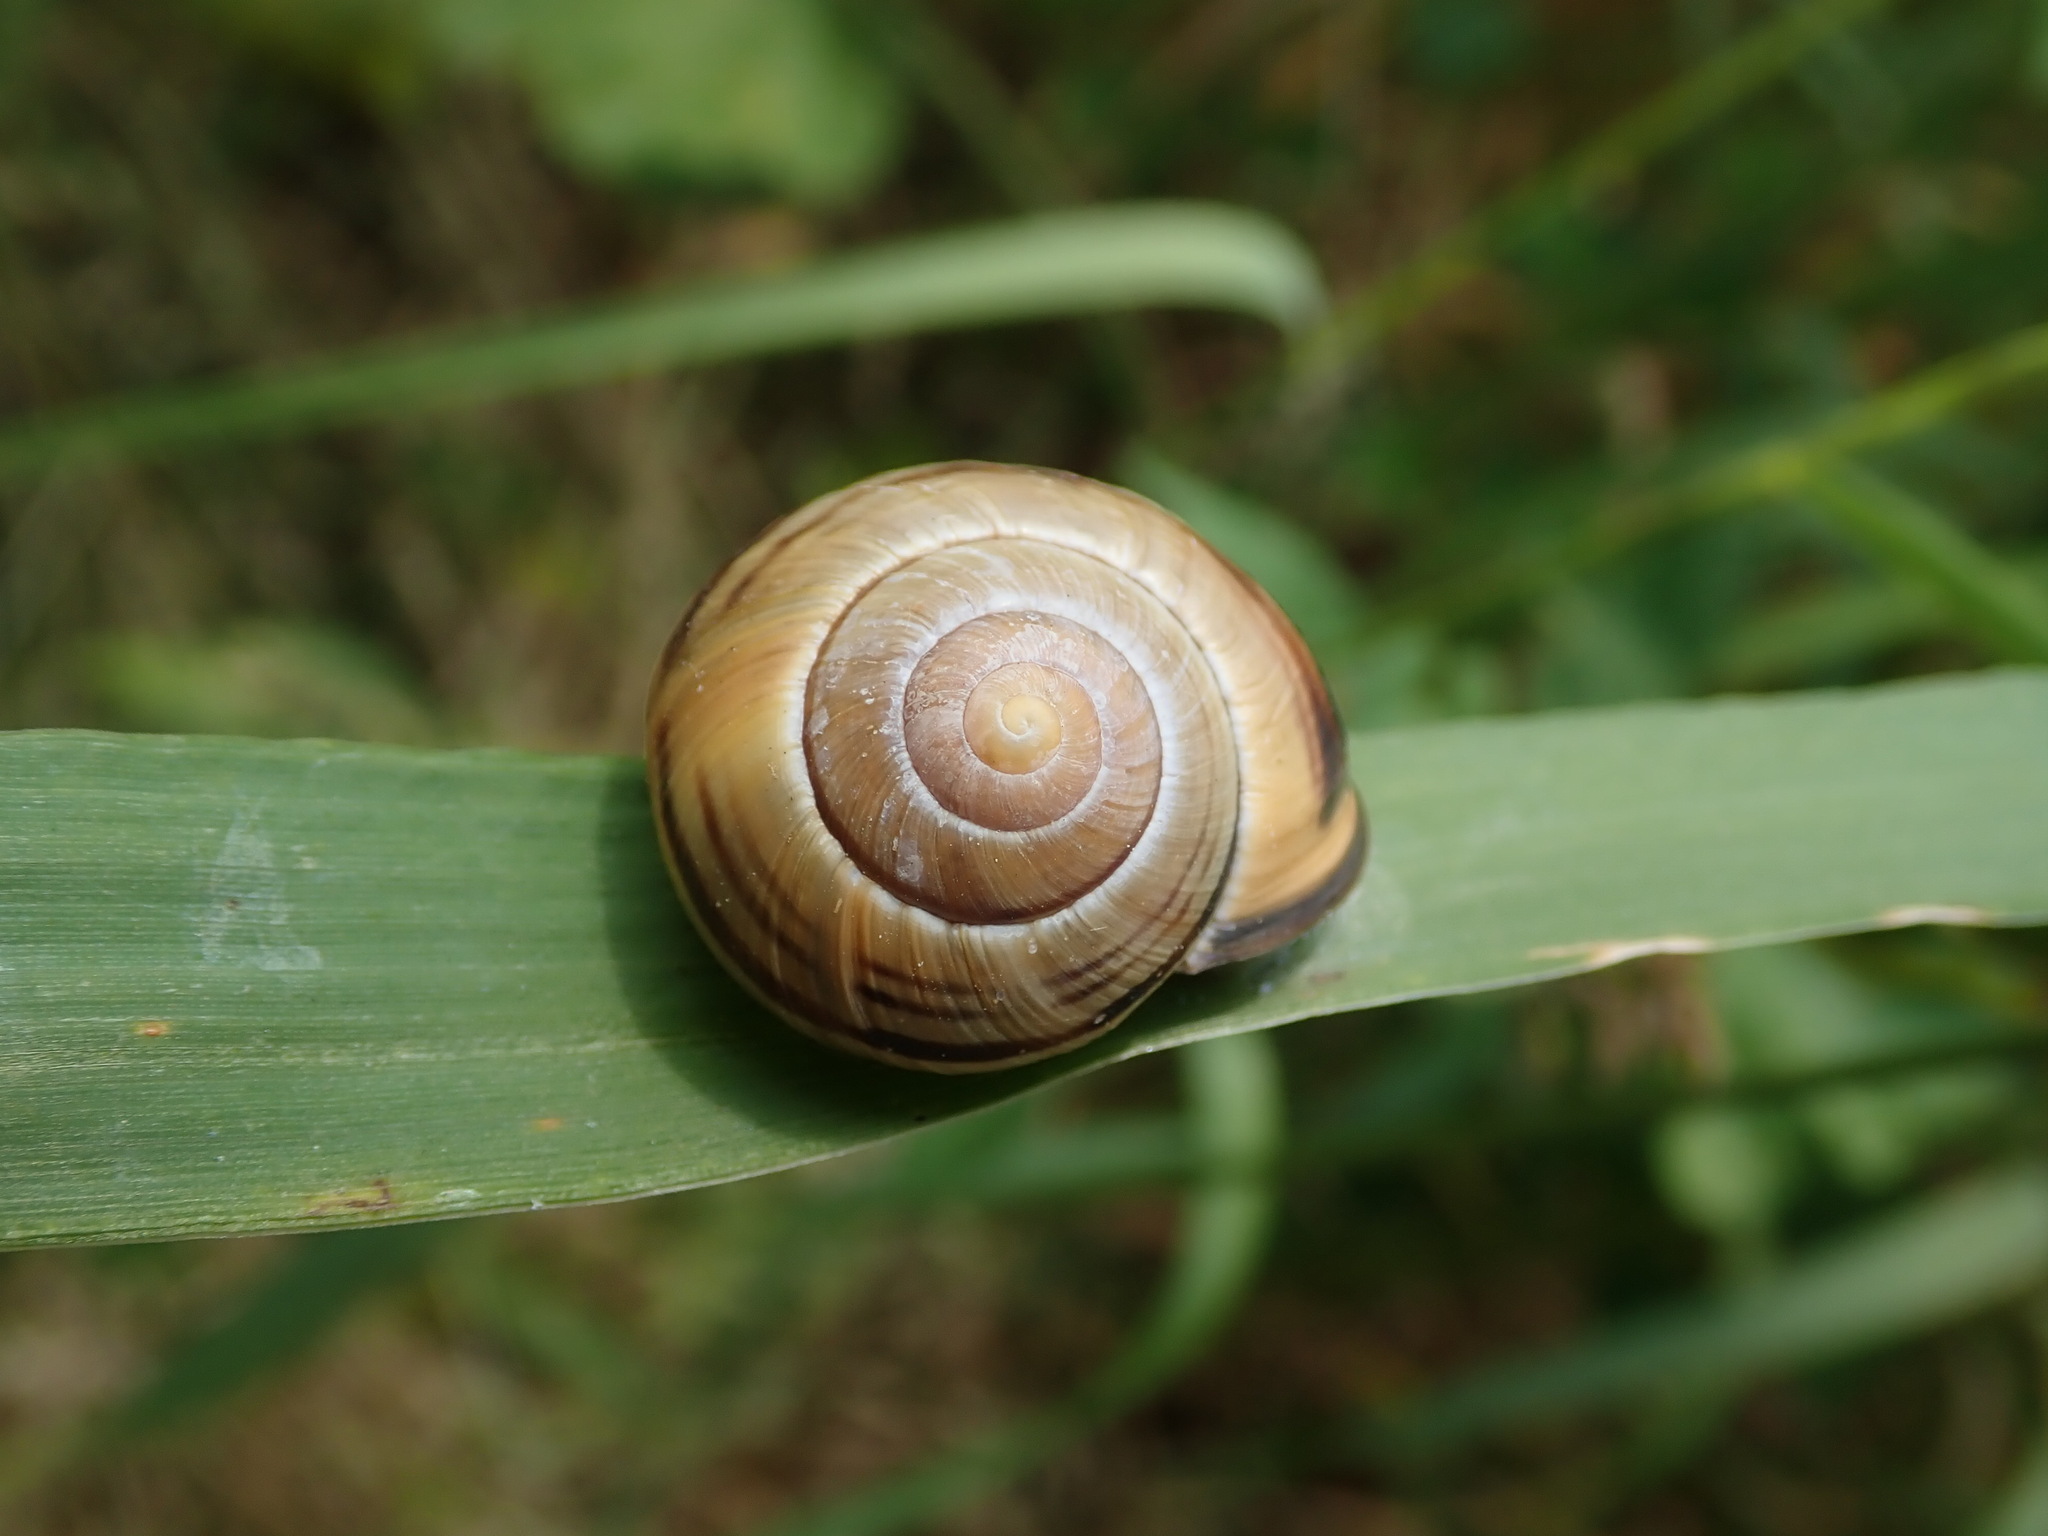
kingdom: Animalia
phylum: Mollusca
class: Gastropoda
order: Stylommatophora
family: Helicidae
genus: Cepaea
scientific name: Cepaea nemoralis
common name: Grovesnail
